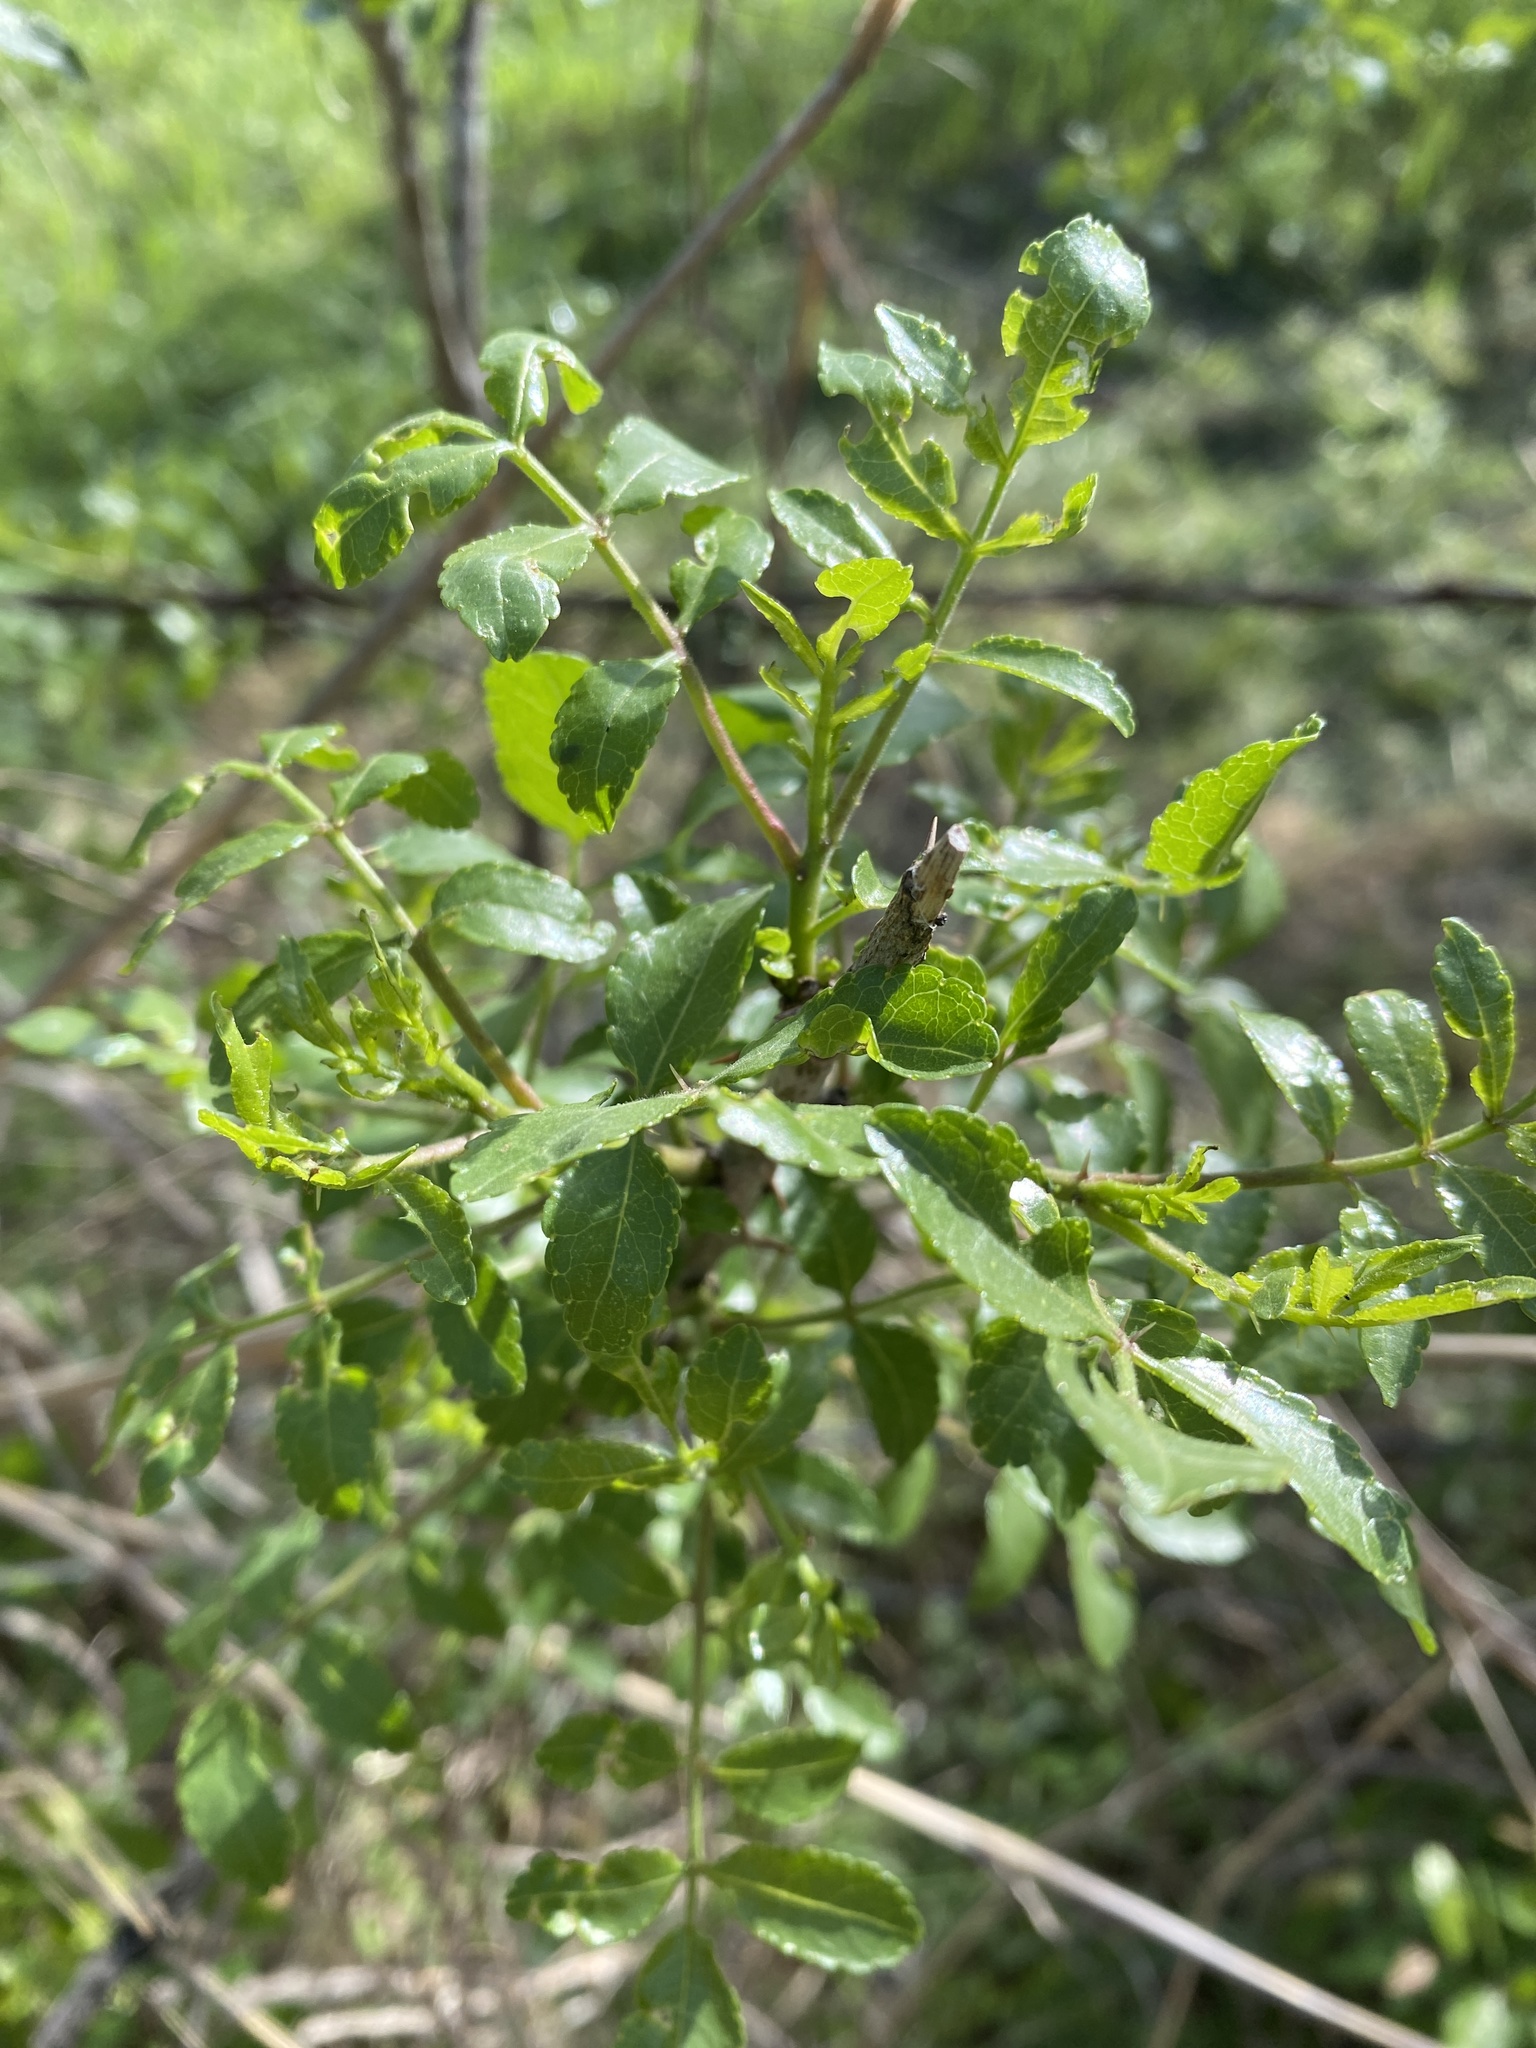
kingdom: Plantae
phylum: Tracheophyta
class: Magnoliopsida
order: Sapindales
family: Rutaceae
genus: Zanthoxylum
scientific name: Zanthoxylum clava-herculis
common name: Hercules'-club
